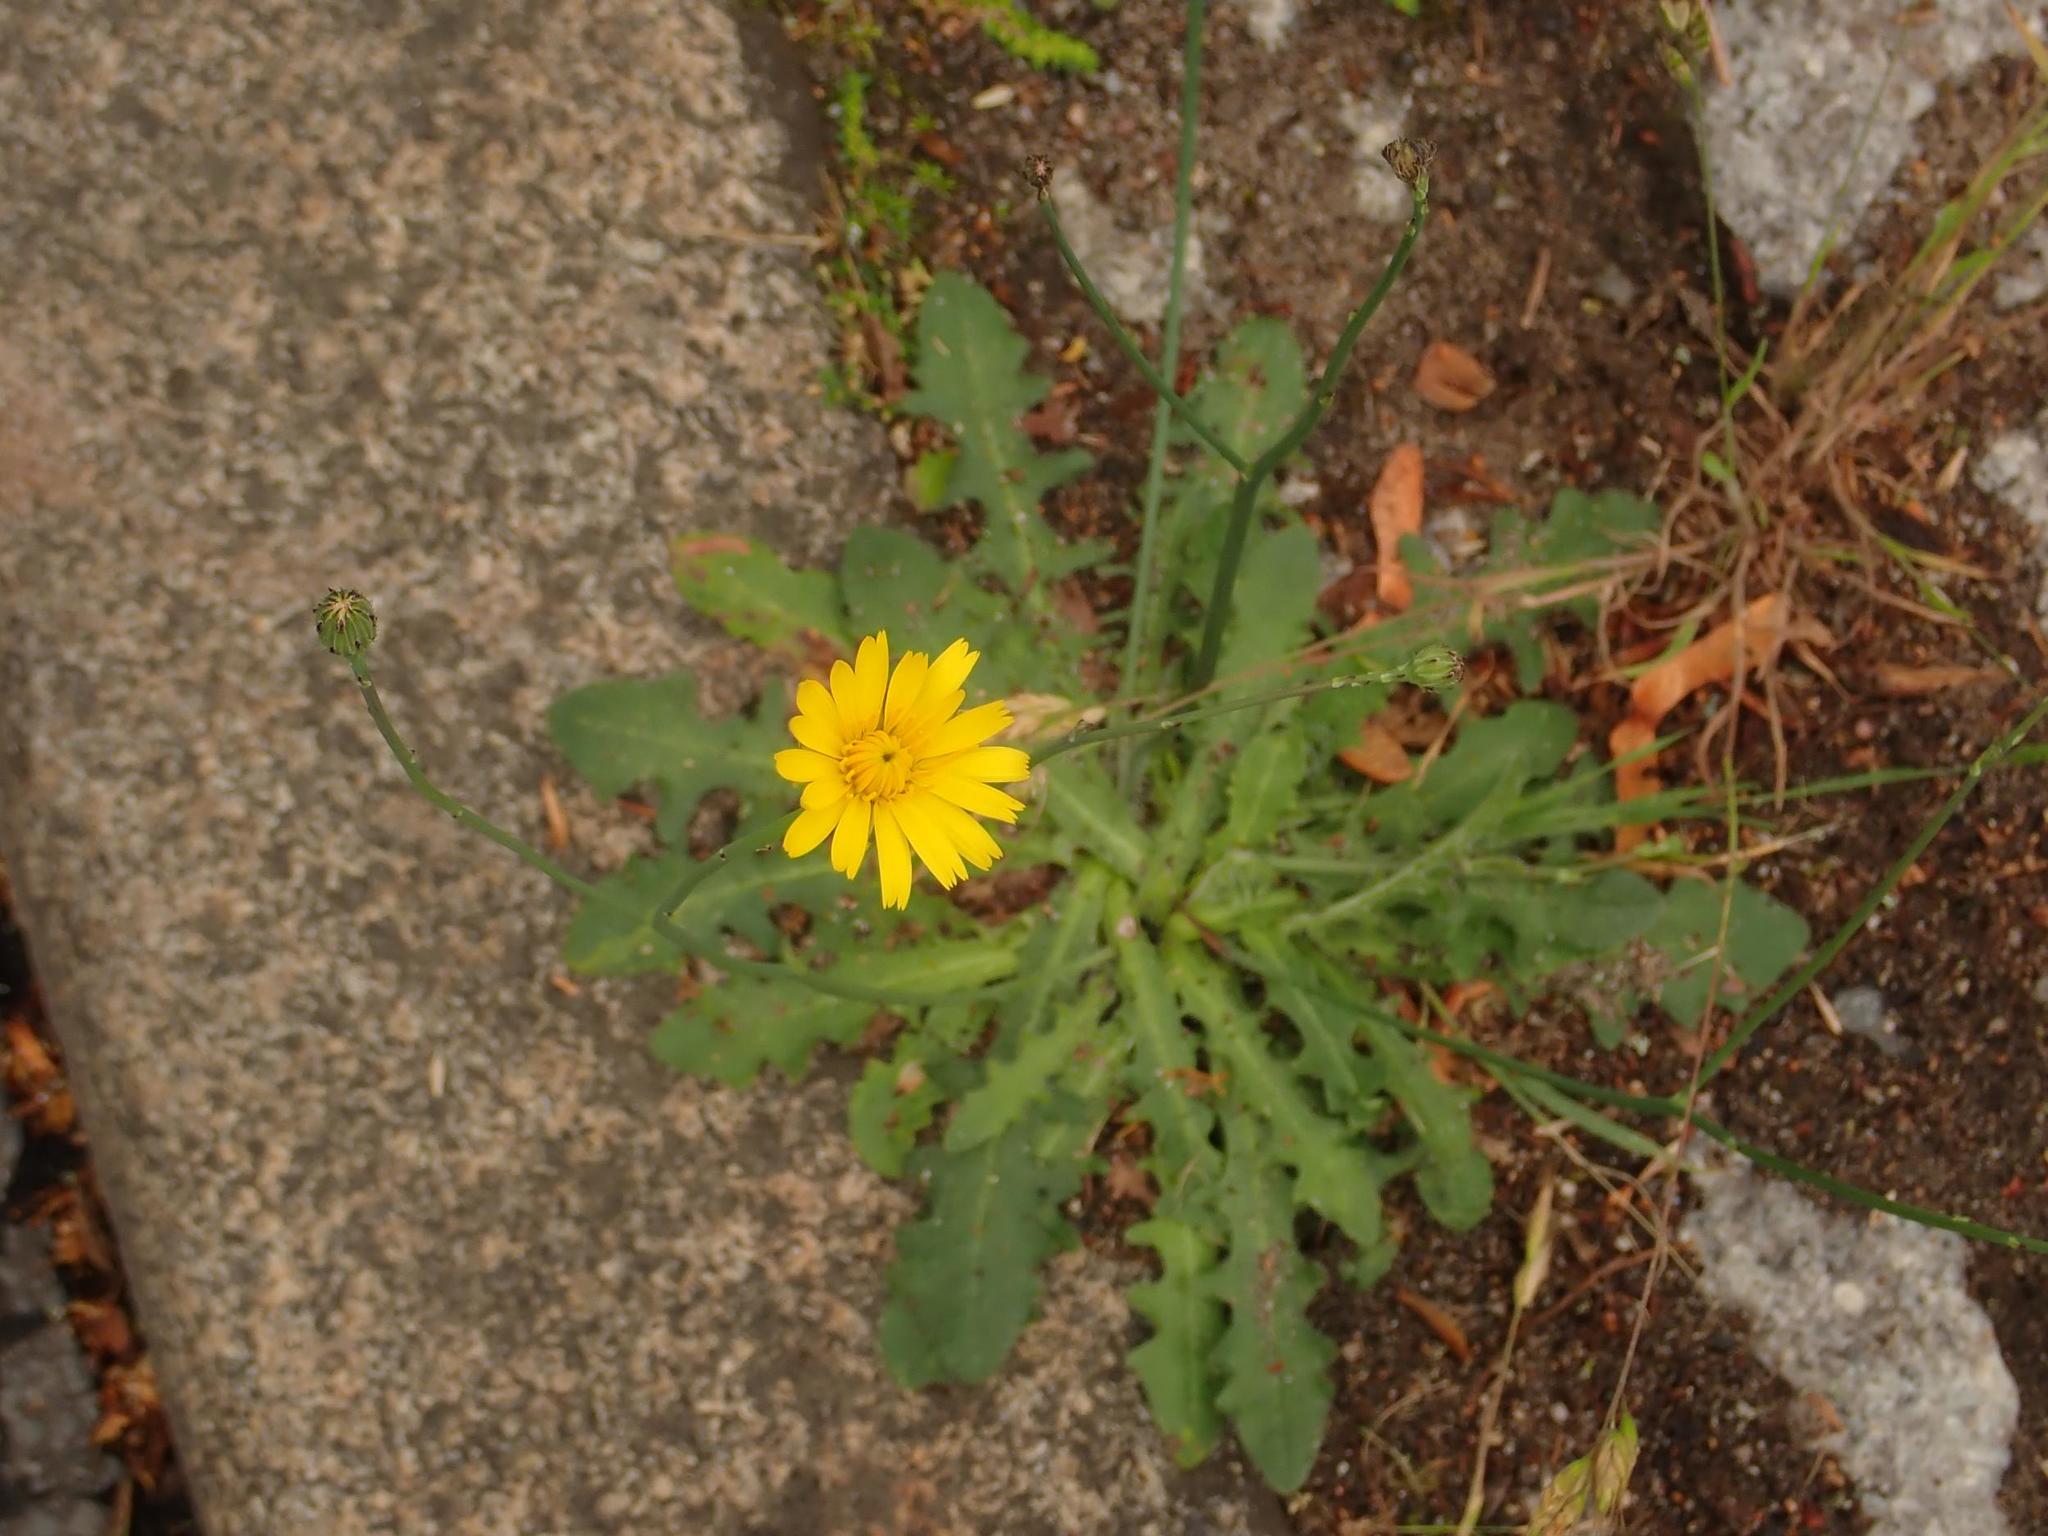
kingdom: Plantae
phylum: Tracheophyta
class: Magnoliopsida
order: Asterales
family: Asteraceae
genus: Hypochaeris
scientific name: Hypochaeris radicata
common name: Flatweed
